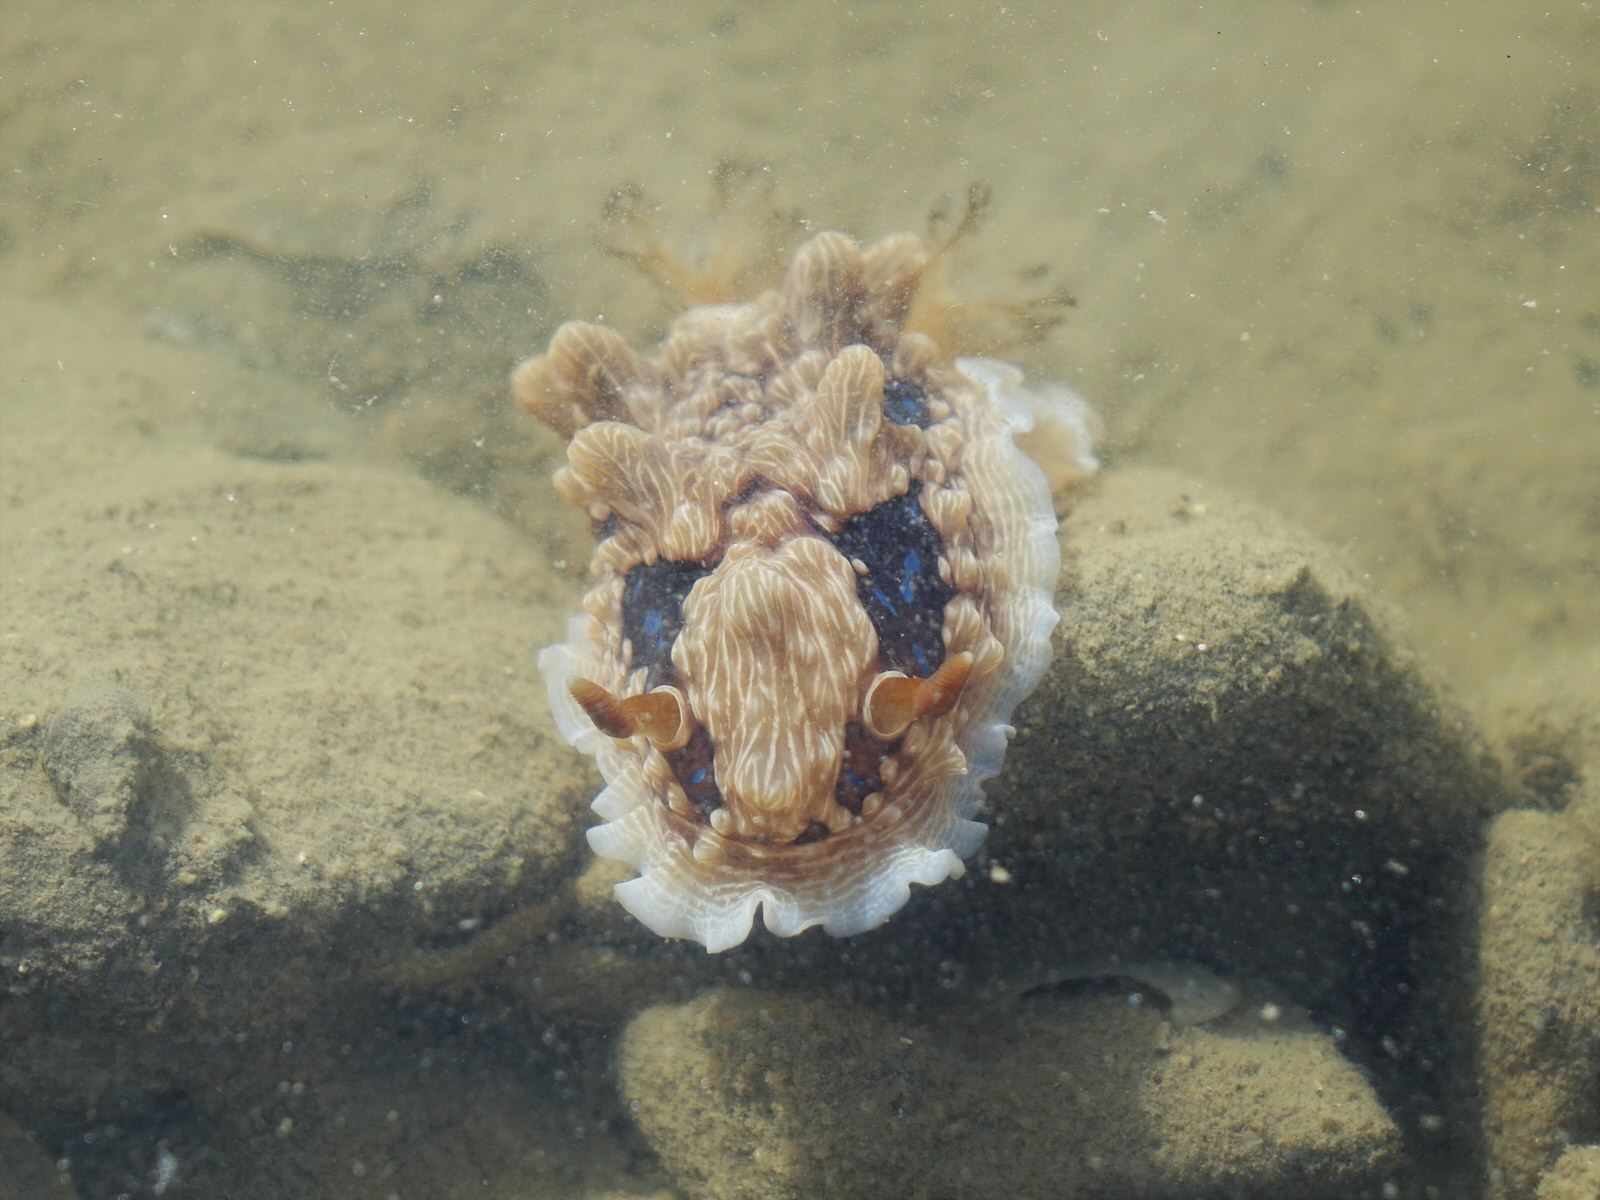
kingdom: Animalia
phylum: Mollusca
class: Gastropoda
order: Nudibranchia
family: Dendrodorididae
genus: Dendrodoris
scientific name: Dendrodoris krusensternii
